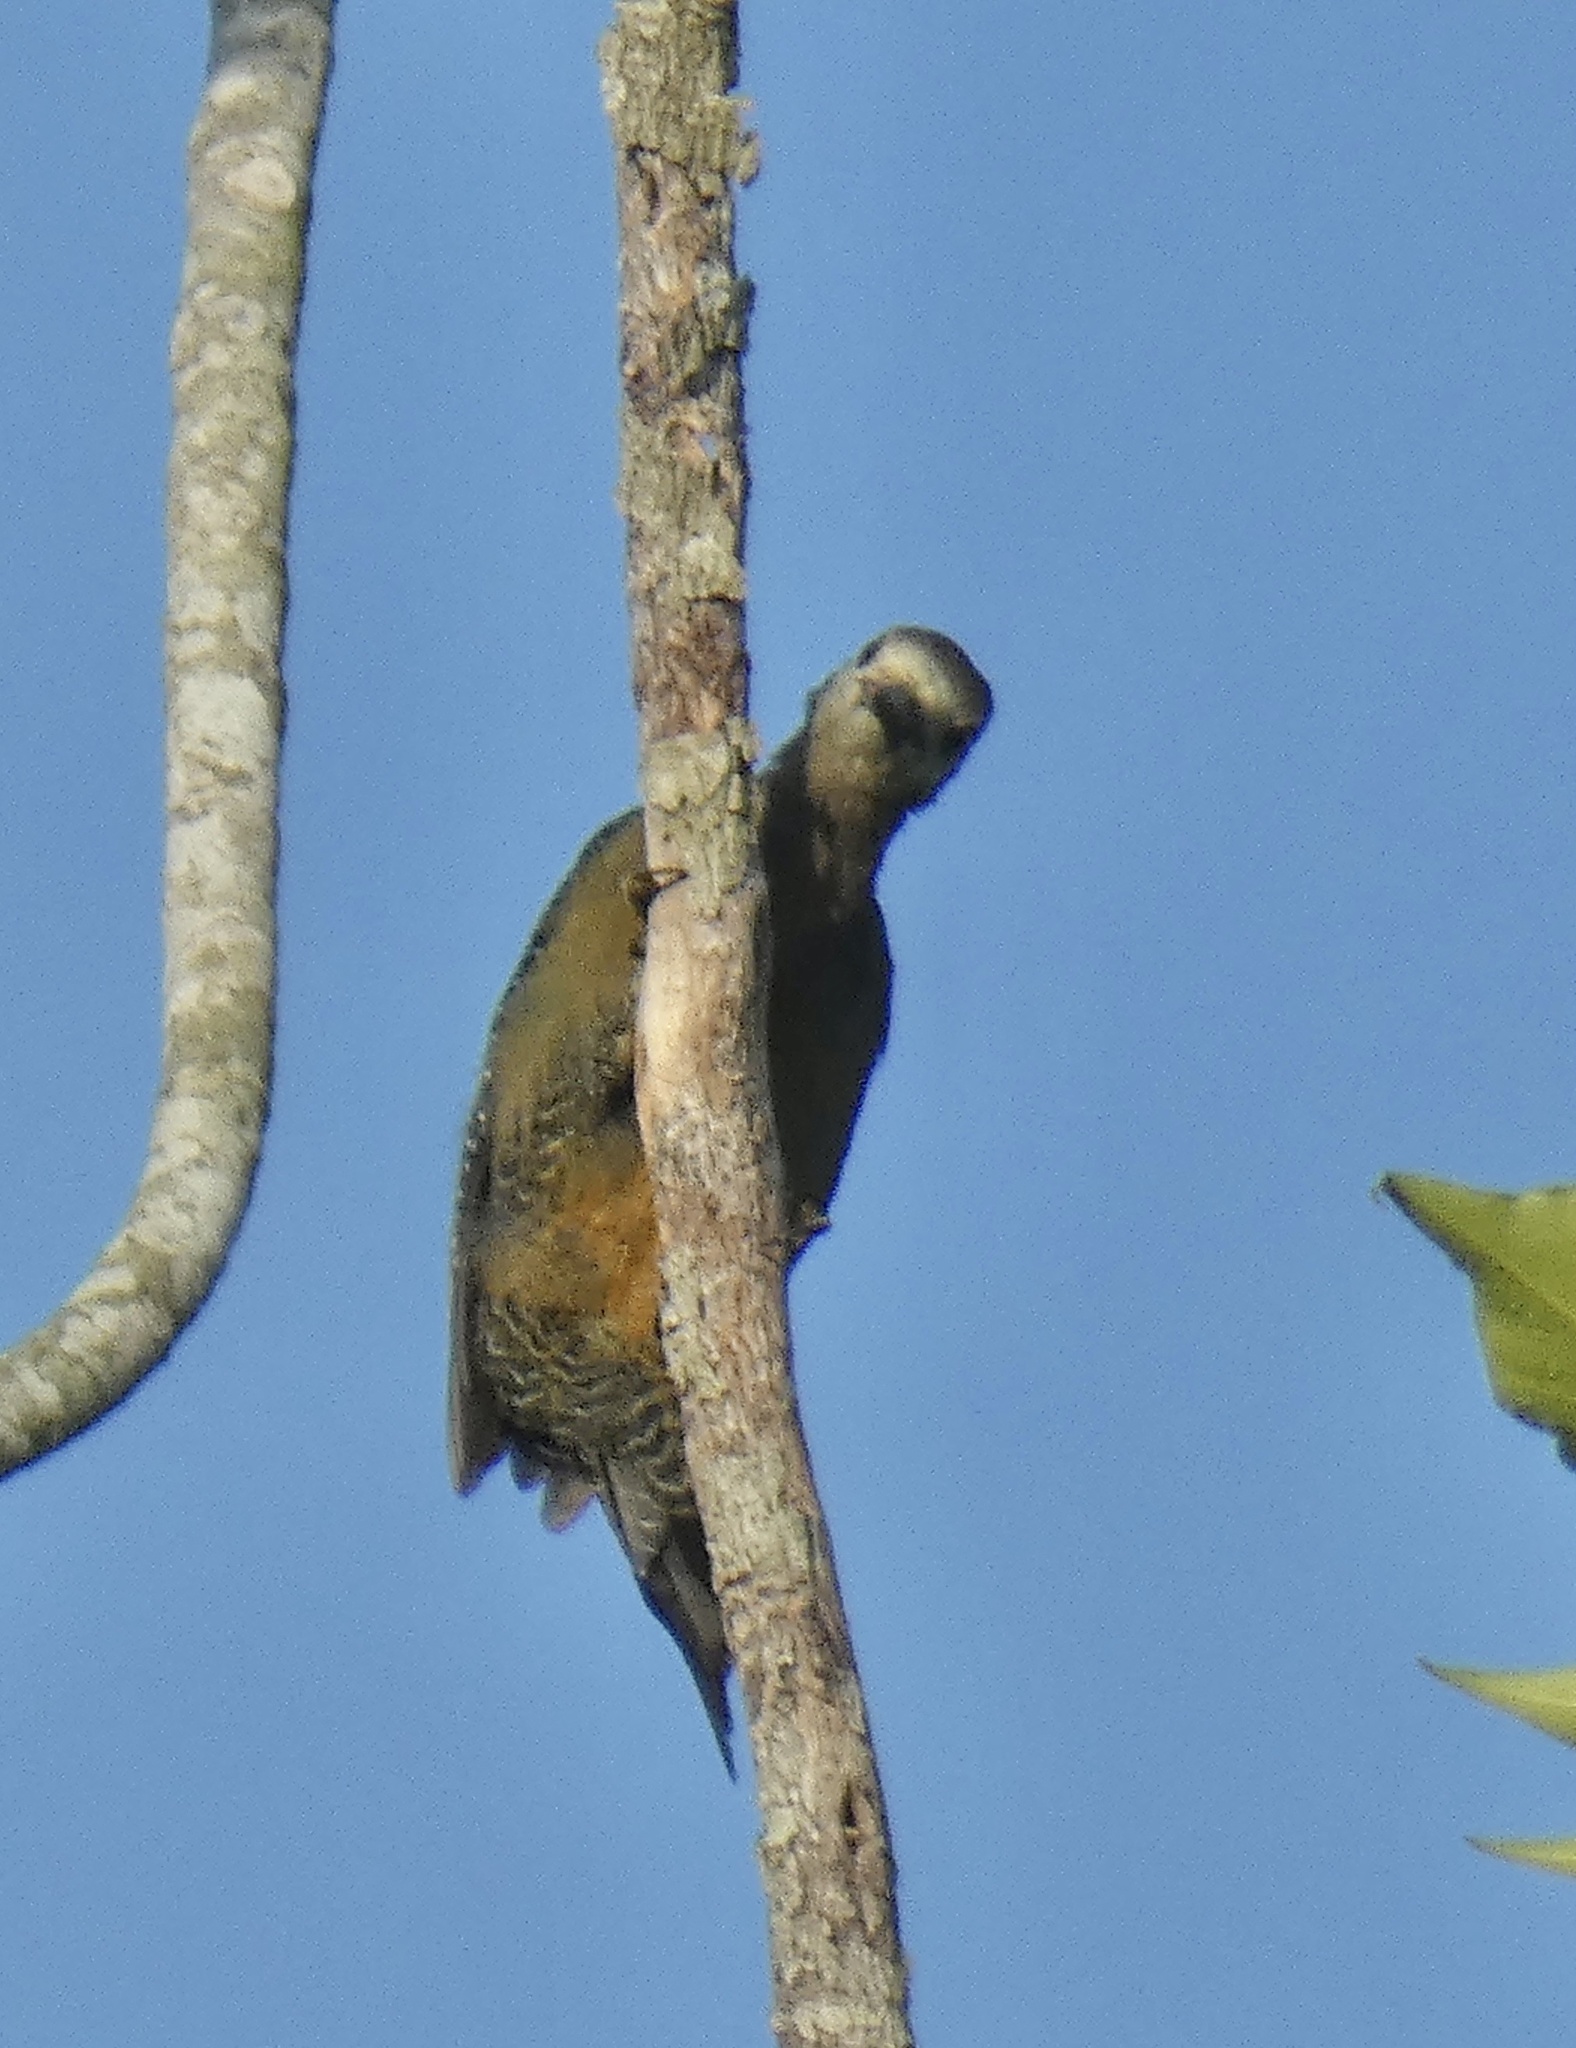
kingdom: Animalia
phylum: Chordata
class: Aves
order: Piciformes
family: Picidae
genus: Melanerpes
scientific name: Melanerpes radiolatus
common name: Jamaican woodpecker
